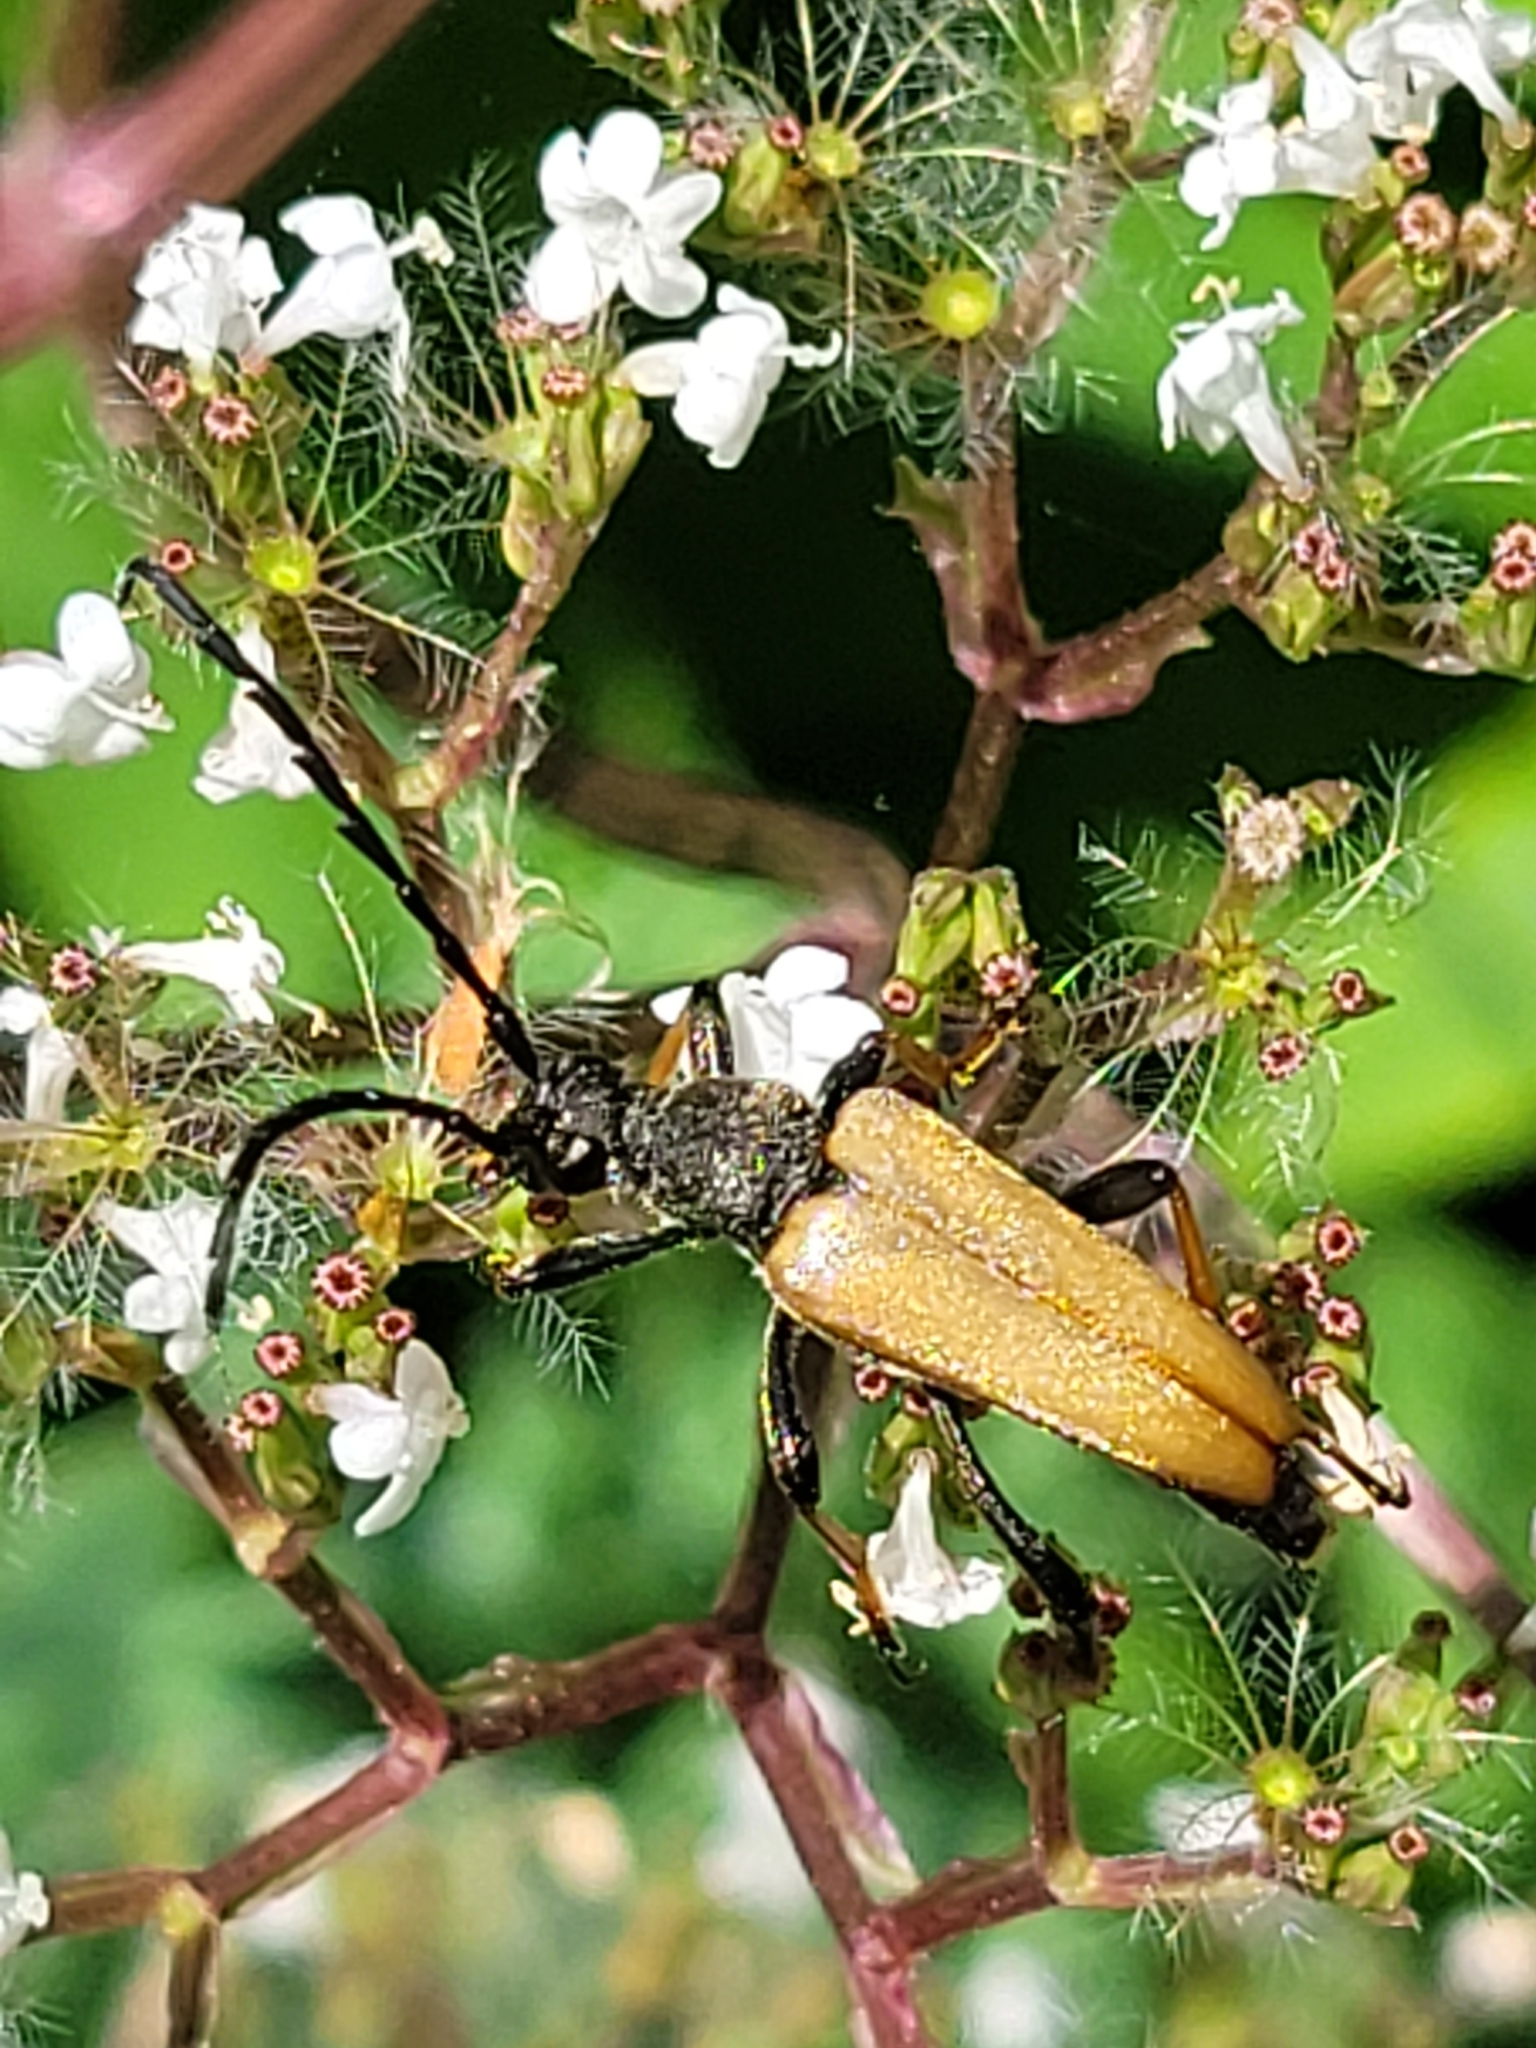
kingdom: Animalia
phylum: Arthropoda
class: Insecta
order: Coleoptera
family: Cerambycidae
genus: Stictoleptura
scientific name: Stictoleptura rubra
